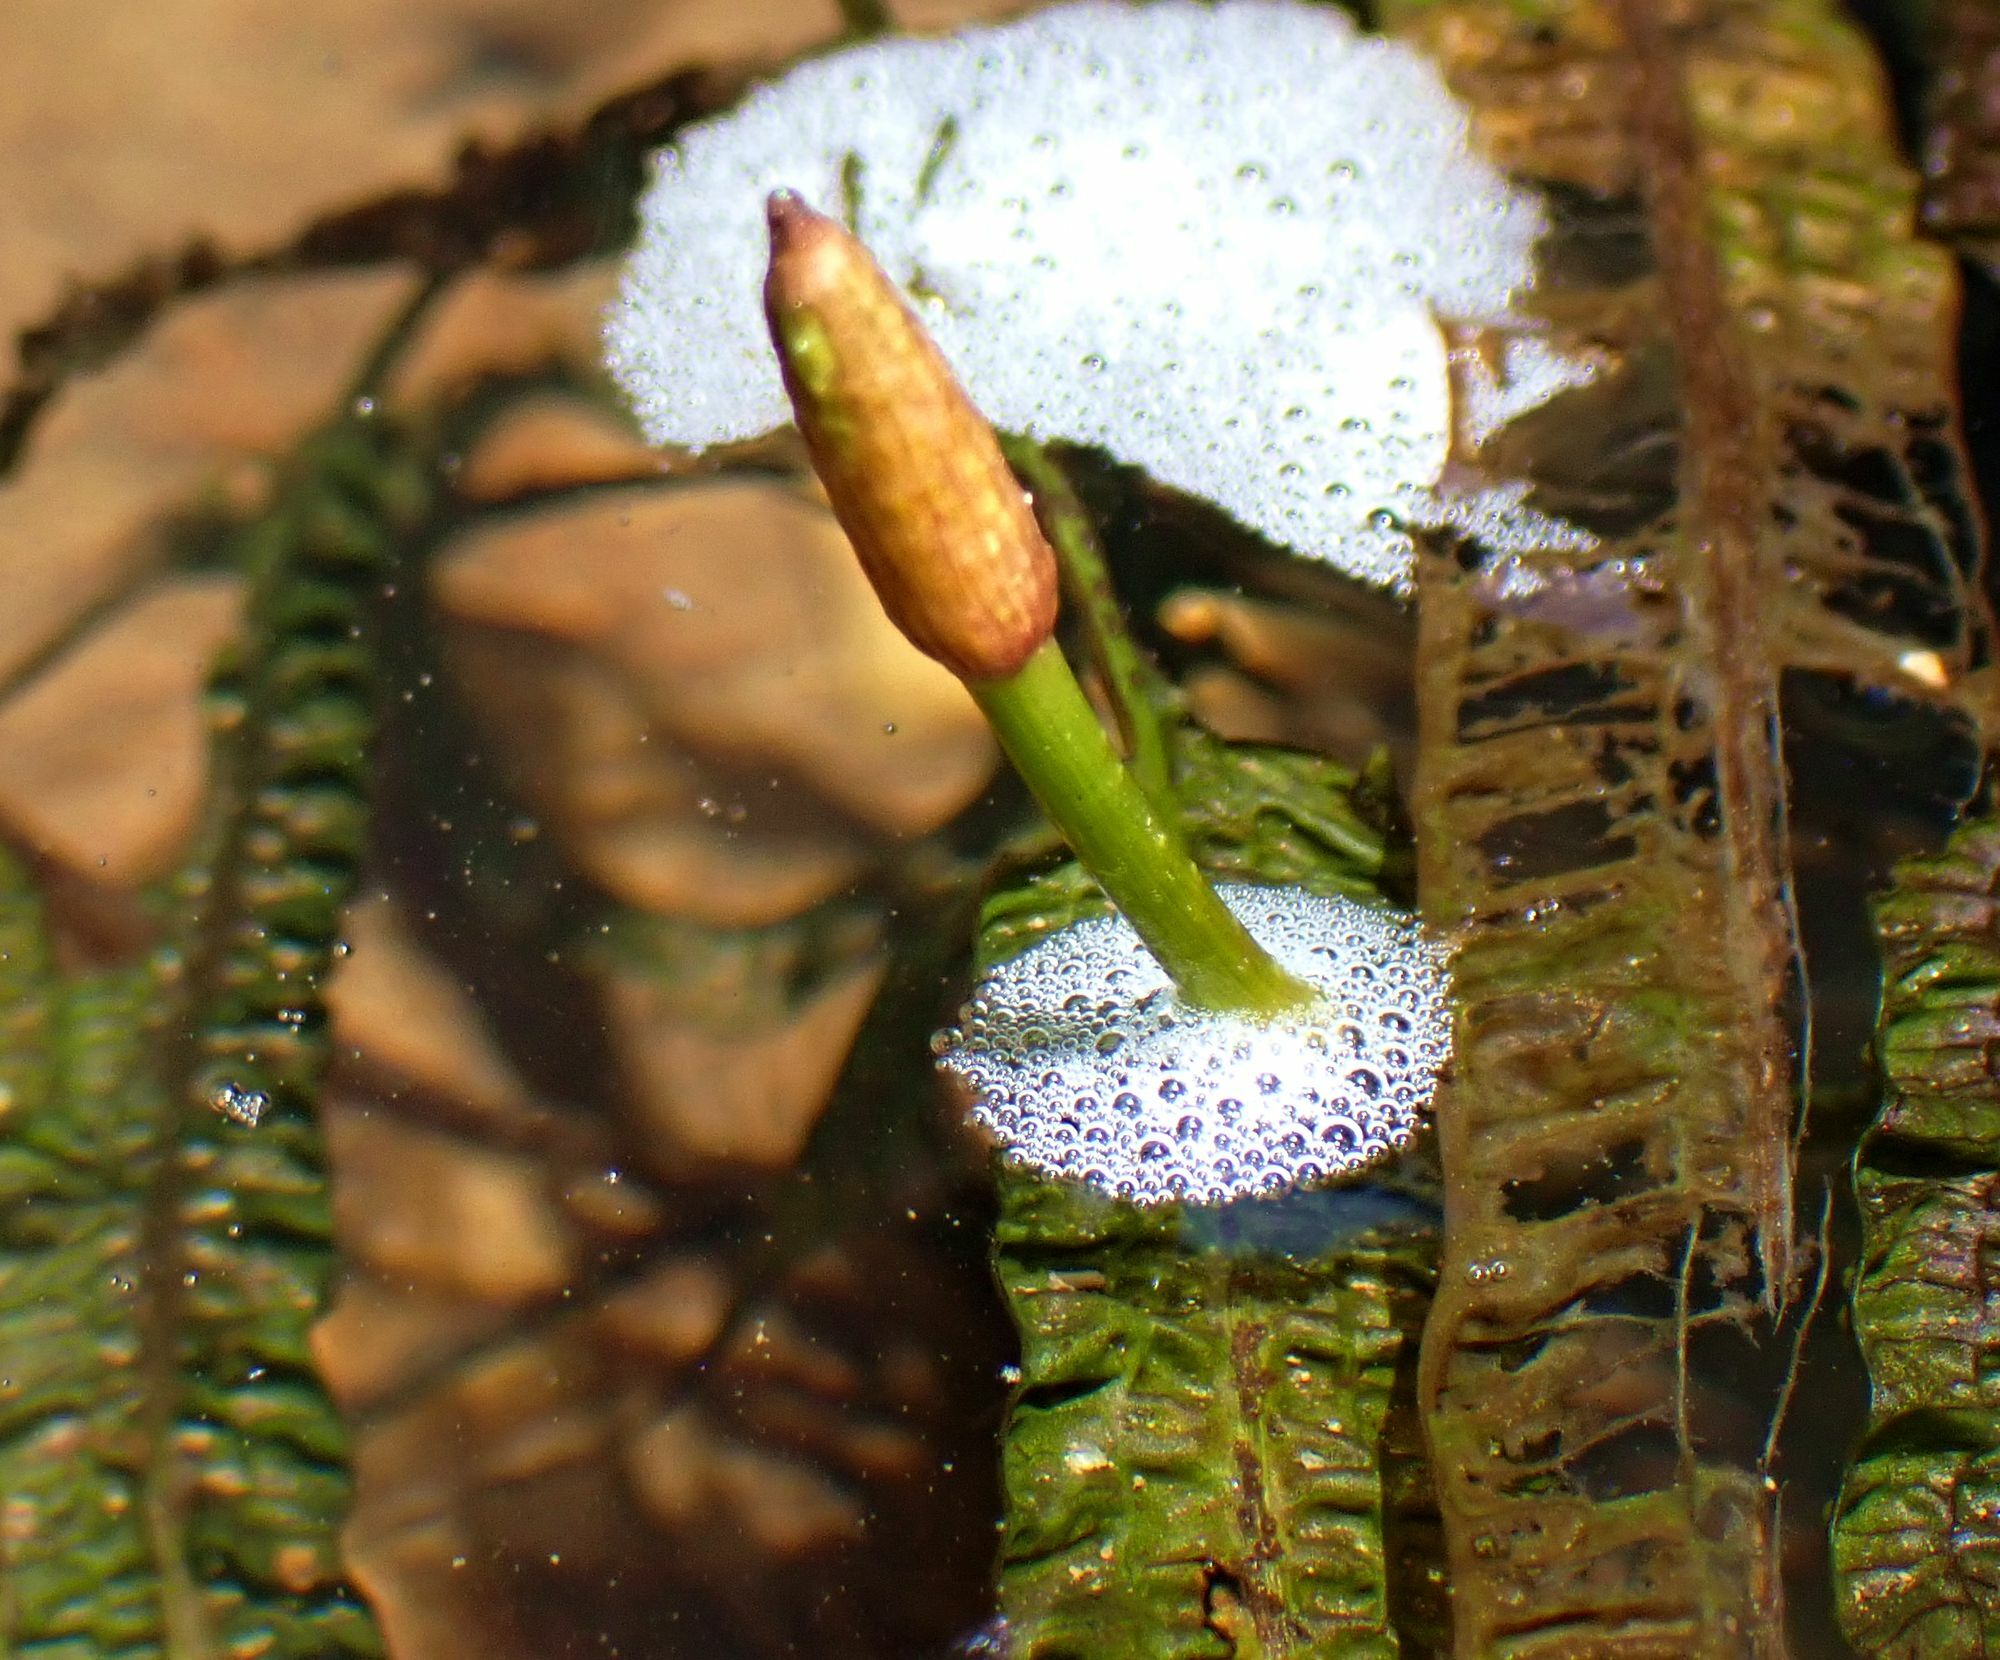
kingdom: Plantae
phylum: Tracheophyta
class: Liliopsida
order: Alismatales
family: Aponogetonaceae
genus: Aponogeton
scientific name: Aponogeton bullosus
